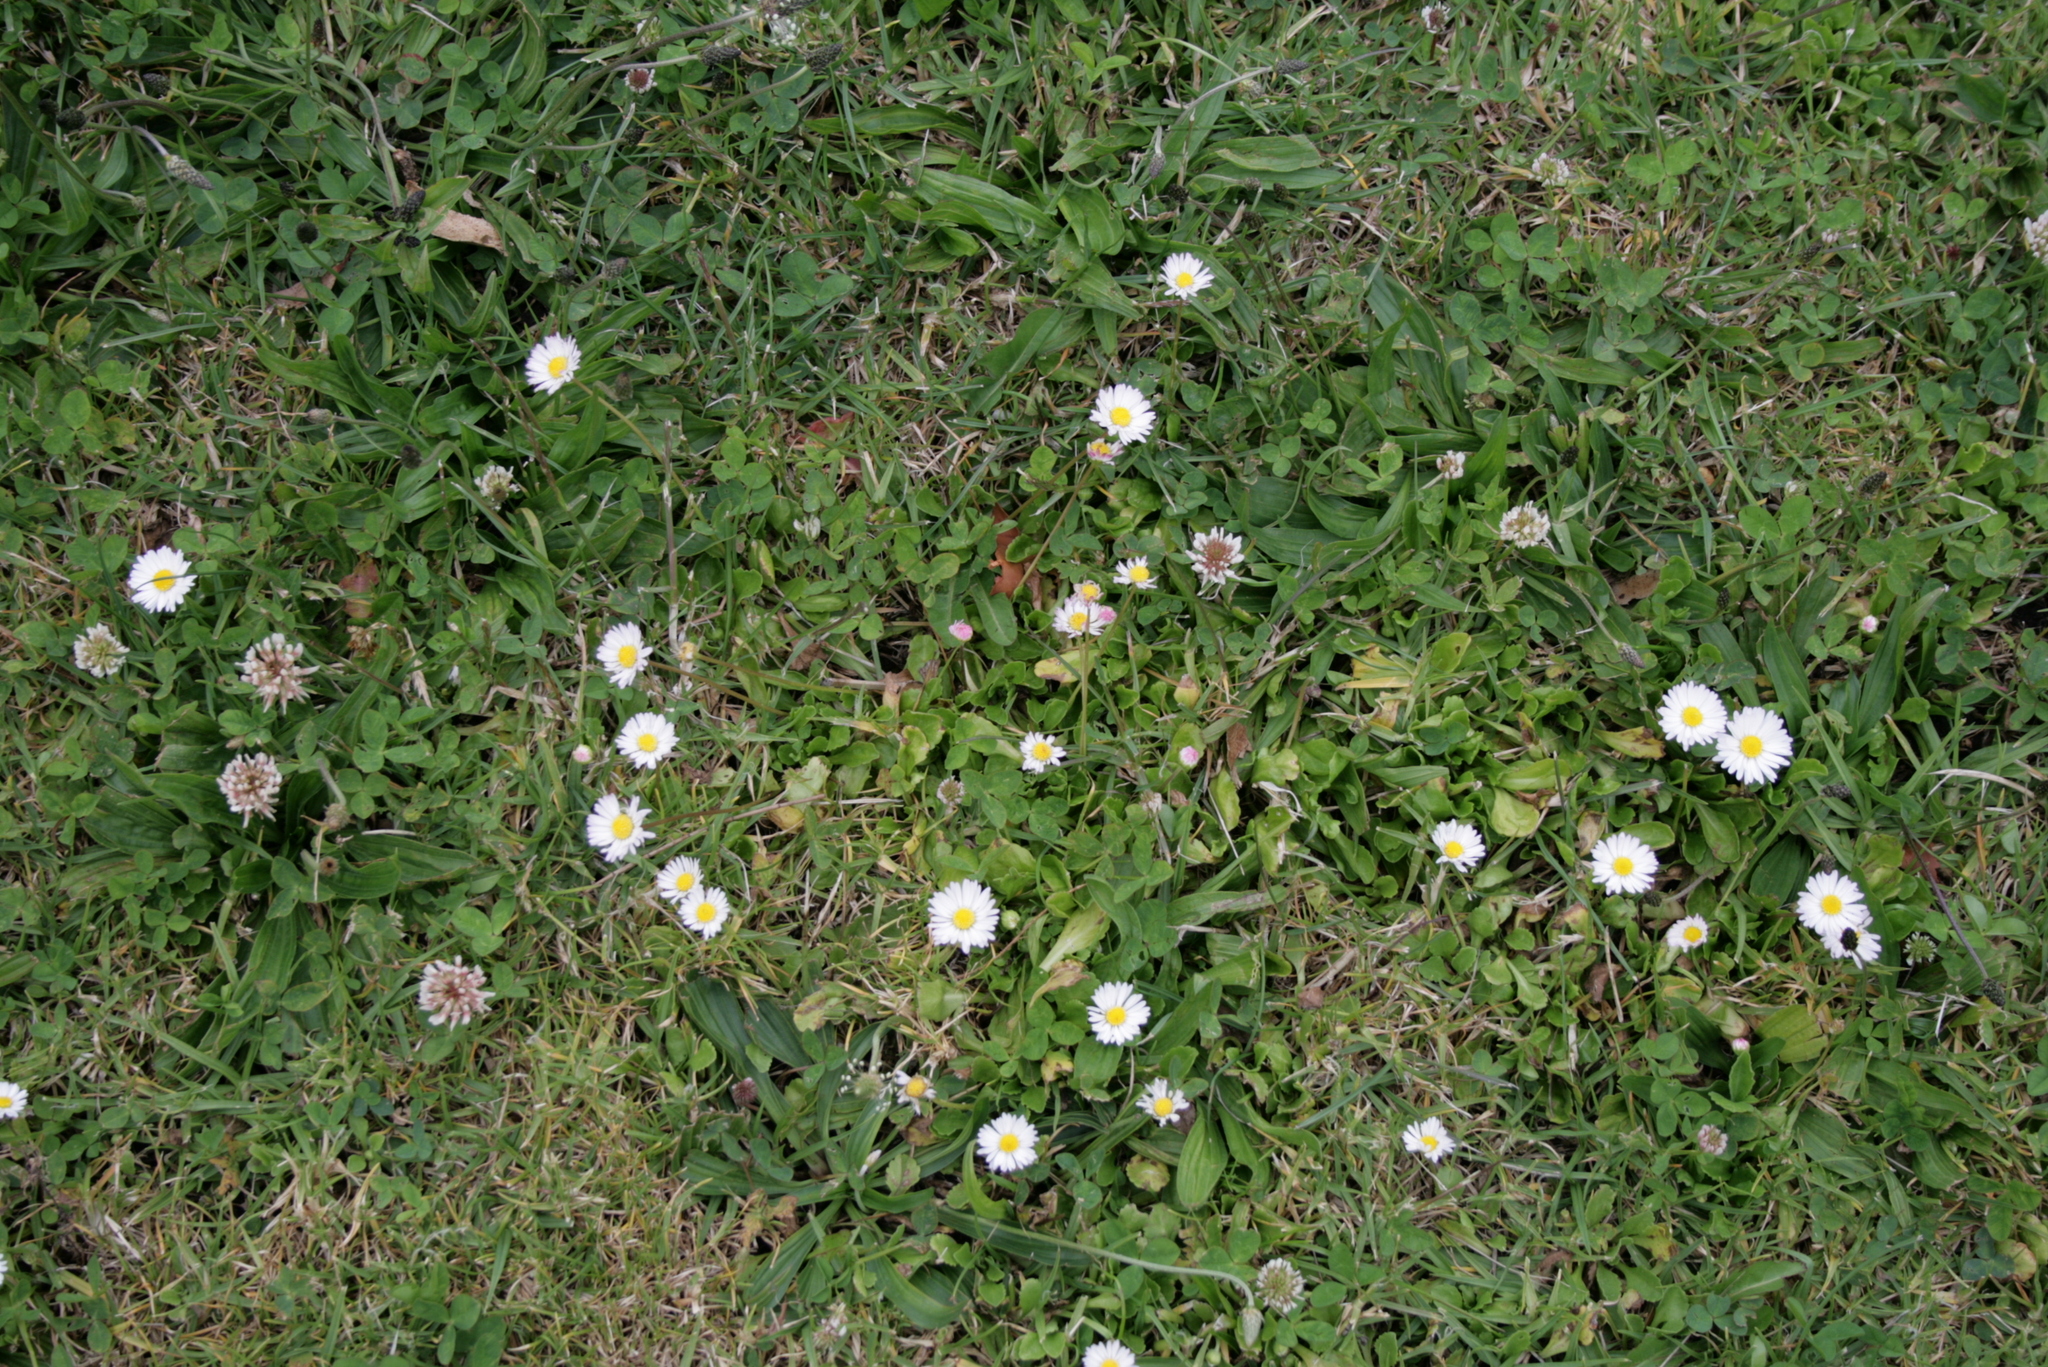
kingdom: Plantae
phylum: Tracheophyta
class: Magnoliopsida
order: Asterales
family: Asteraceae
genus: Bellis
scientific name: Bellis perennis
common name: Lawndaisy
